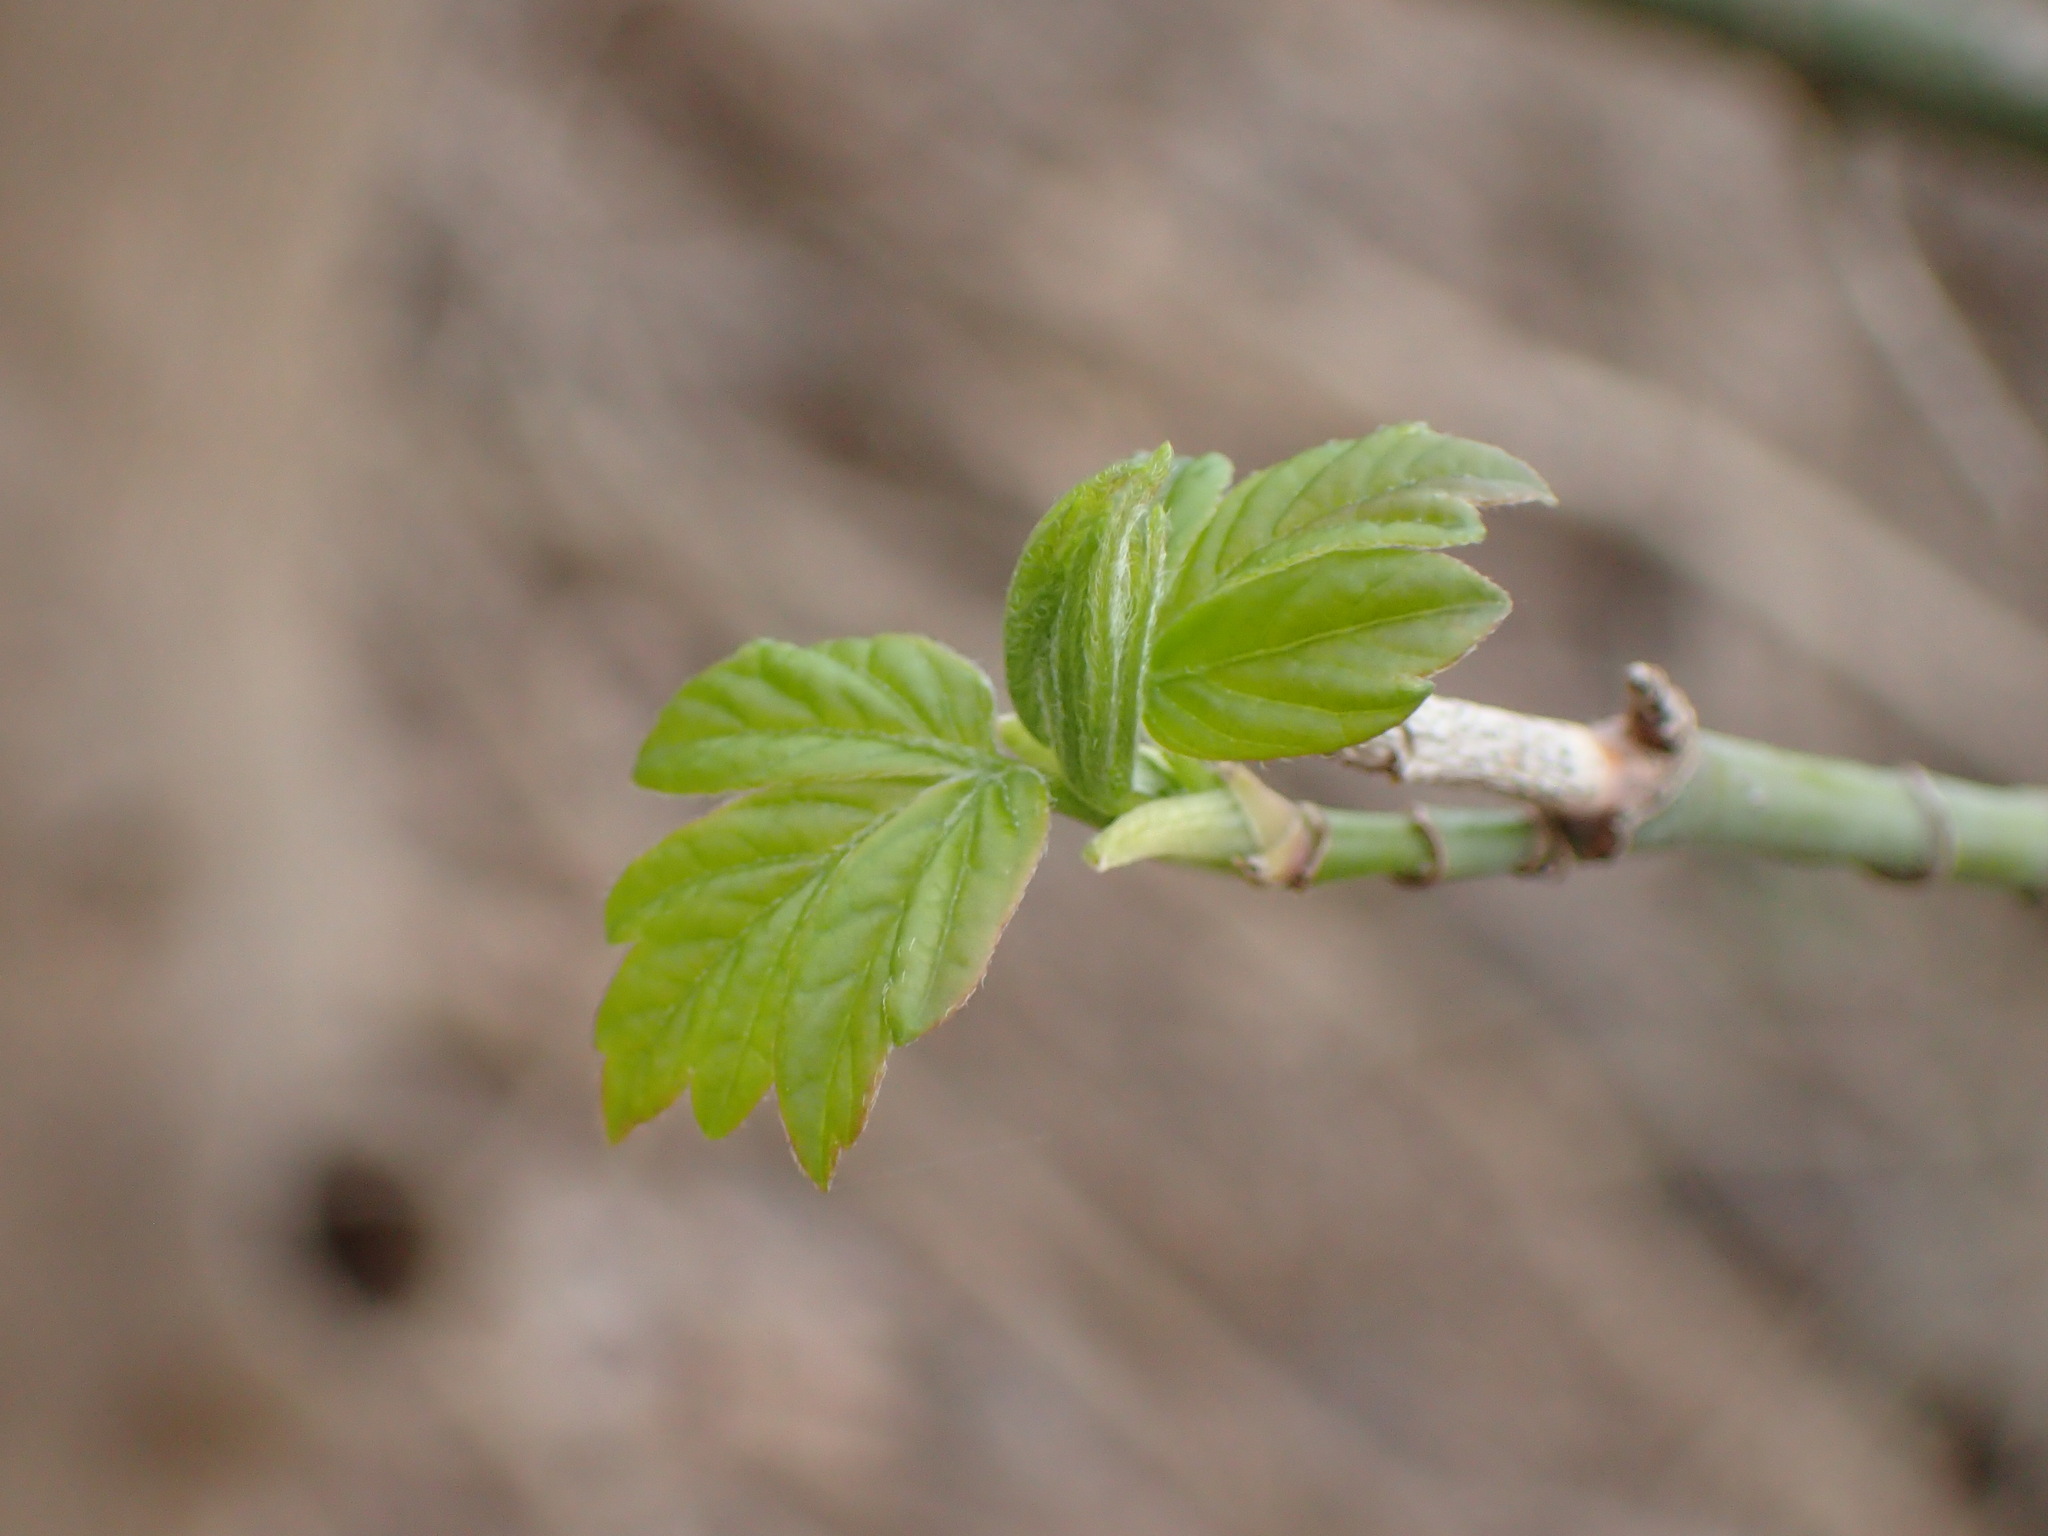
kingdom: Plantae
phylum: Tracheophyta
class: Magnoliopsida
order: Sapindales
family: Sapindaceae
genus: Acer
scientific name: Acer negundo
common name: Ashleaf maple
